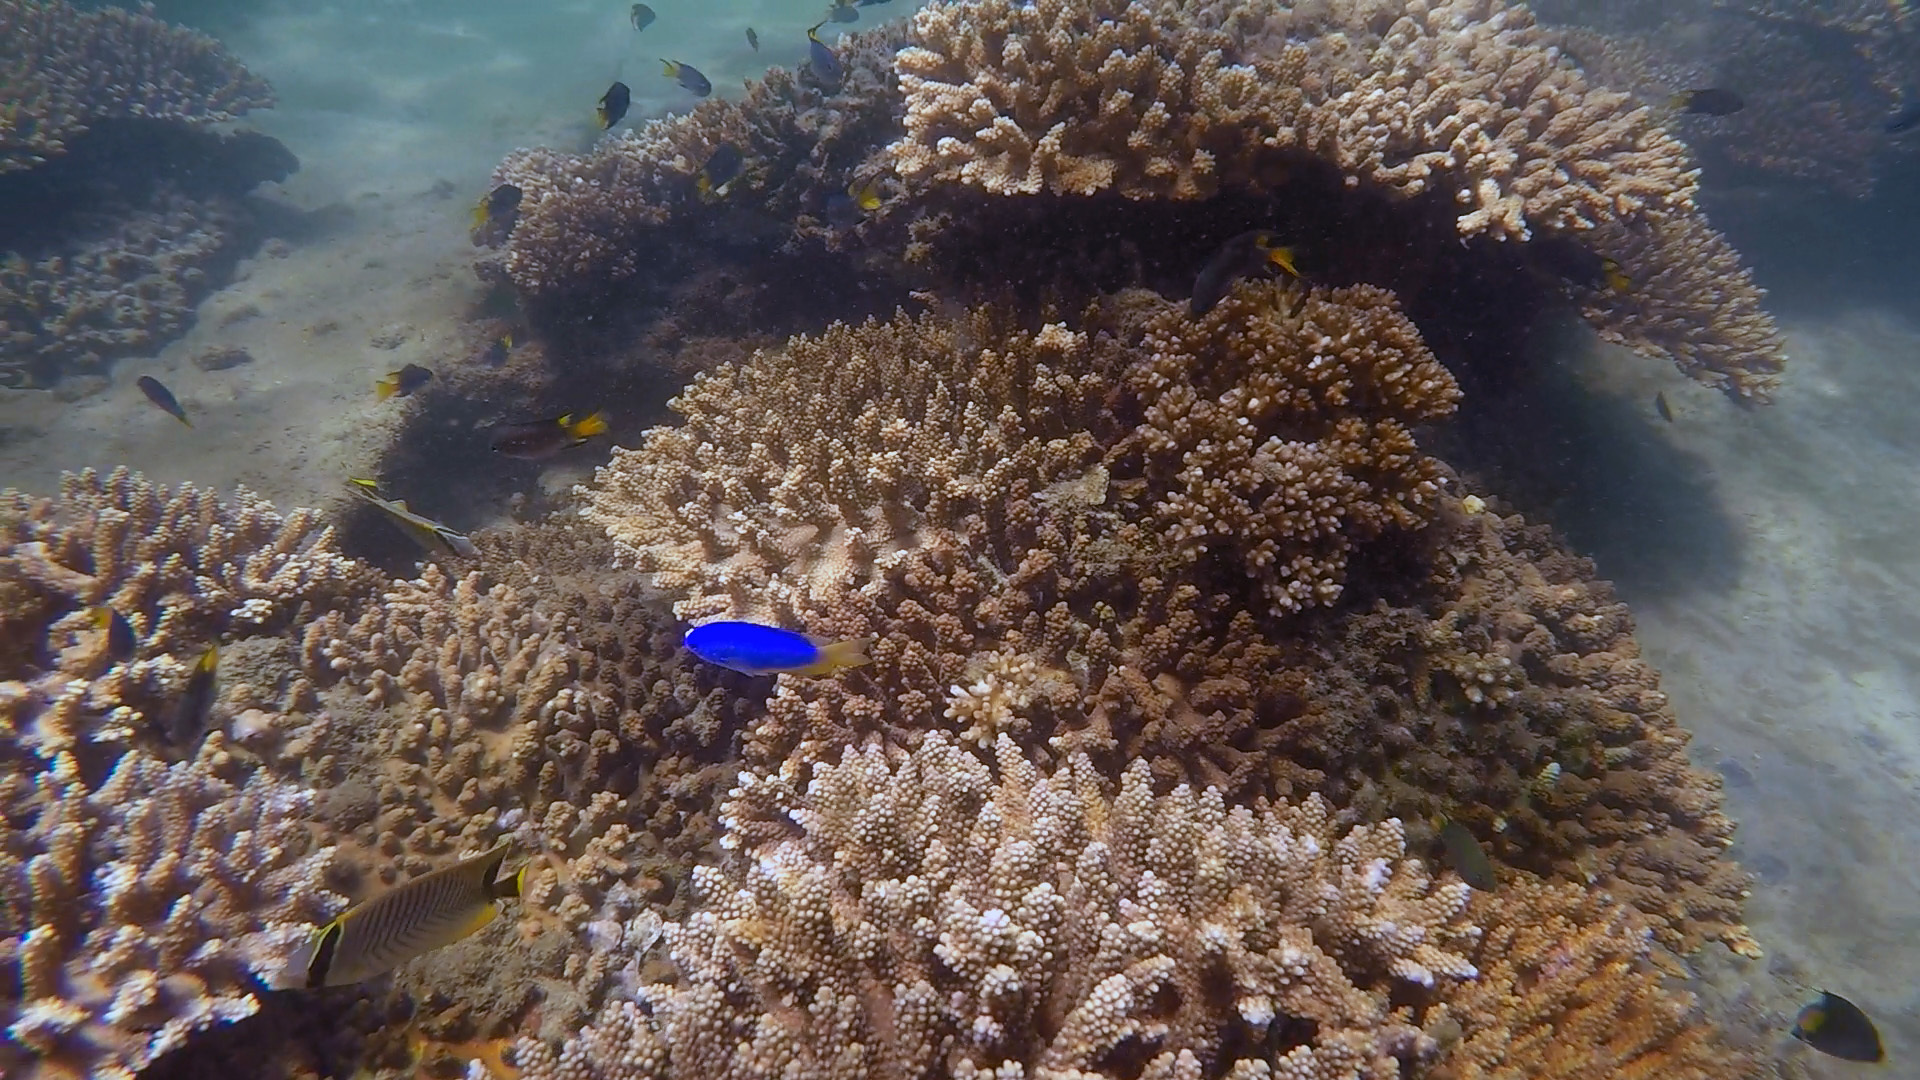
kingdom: Animalia
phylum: Chordata
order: Perciformes
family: Pomacentridae
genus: Pomacentrus
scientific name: Pomacentrus coelestis
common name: Neon damsel
